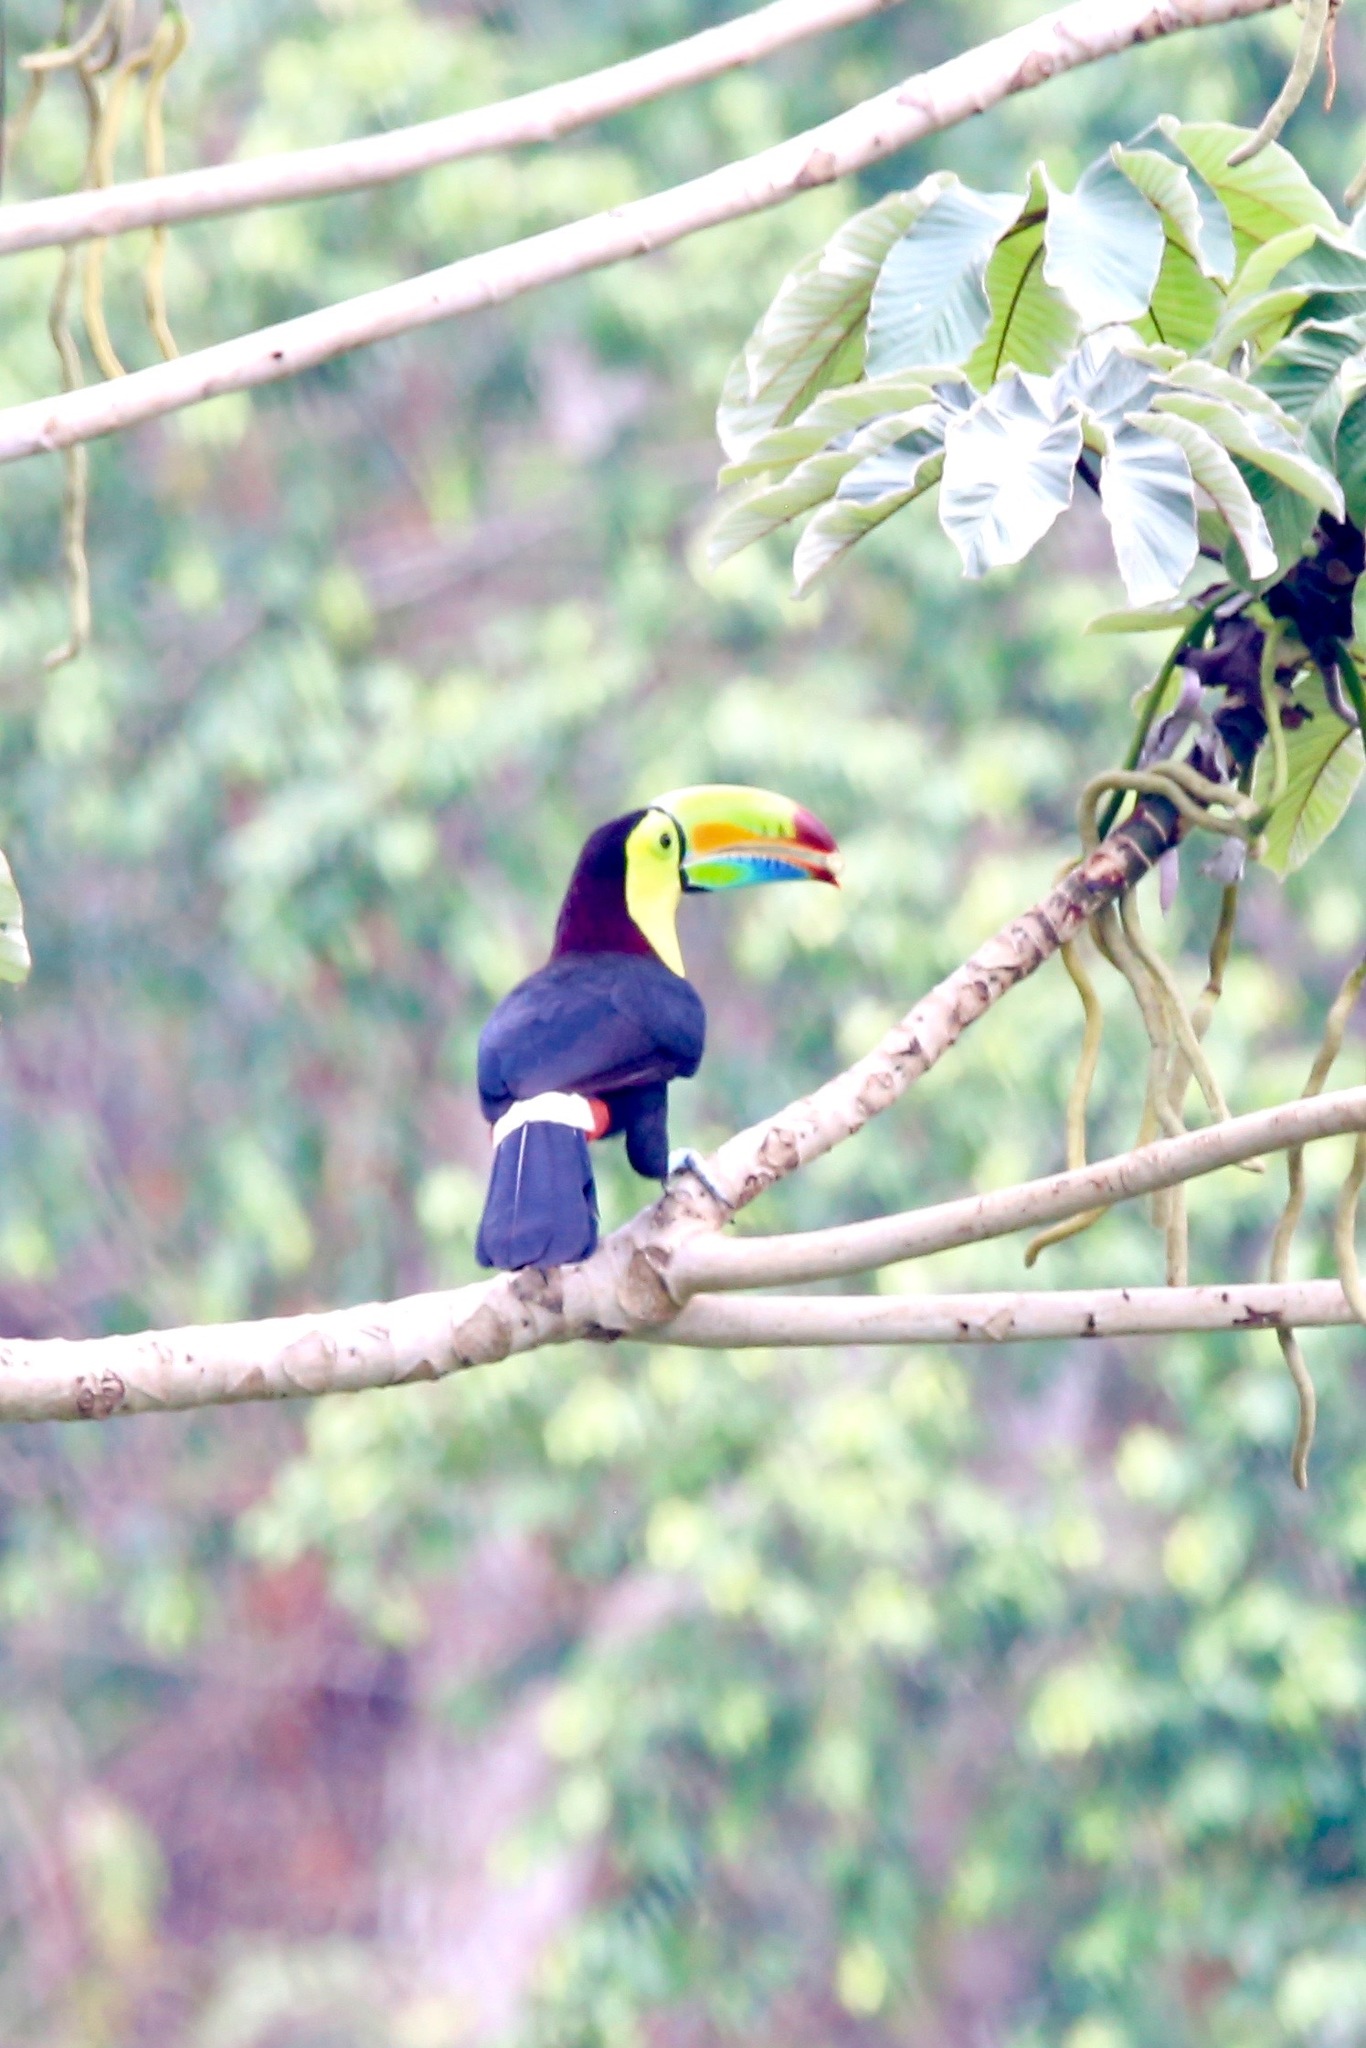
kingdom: Animalia
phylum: Chordata
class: Aves
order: Piciformes
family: Ramphastidae
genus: Ramphastos
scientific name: Ramphastos sulfuratus
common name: Keel-billed toucan
